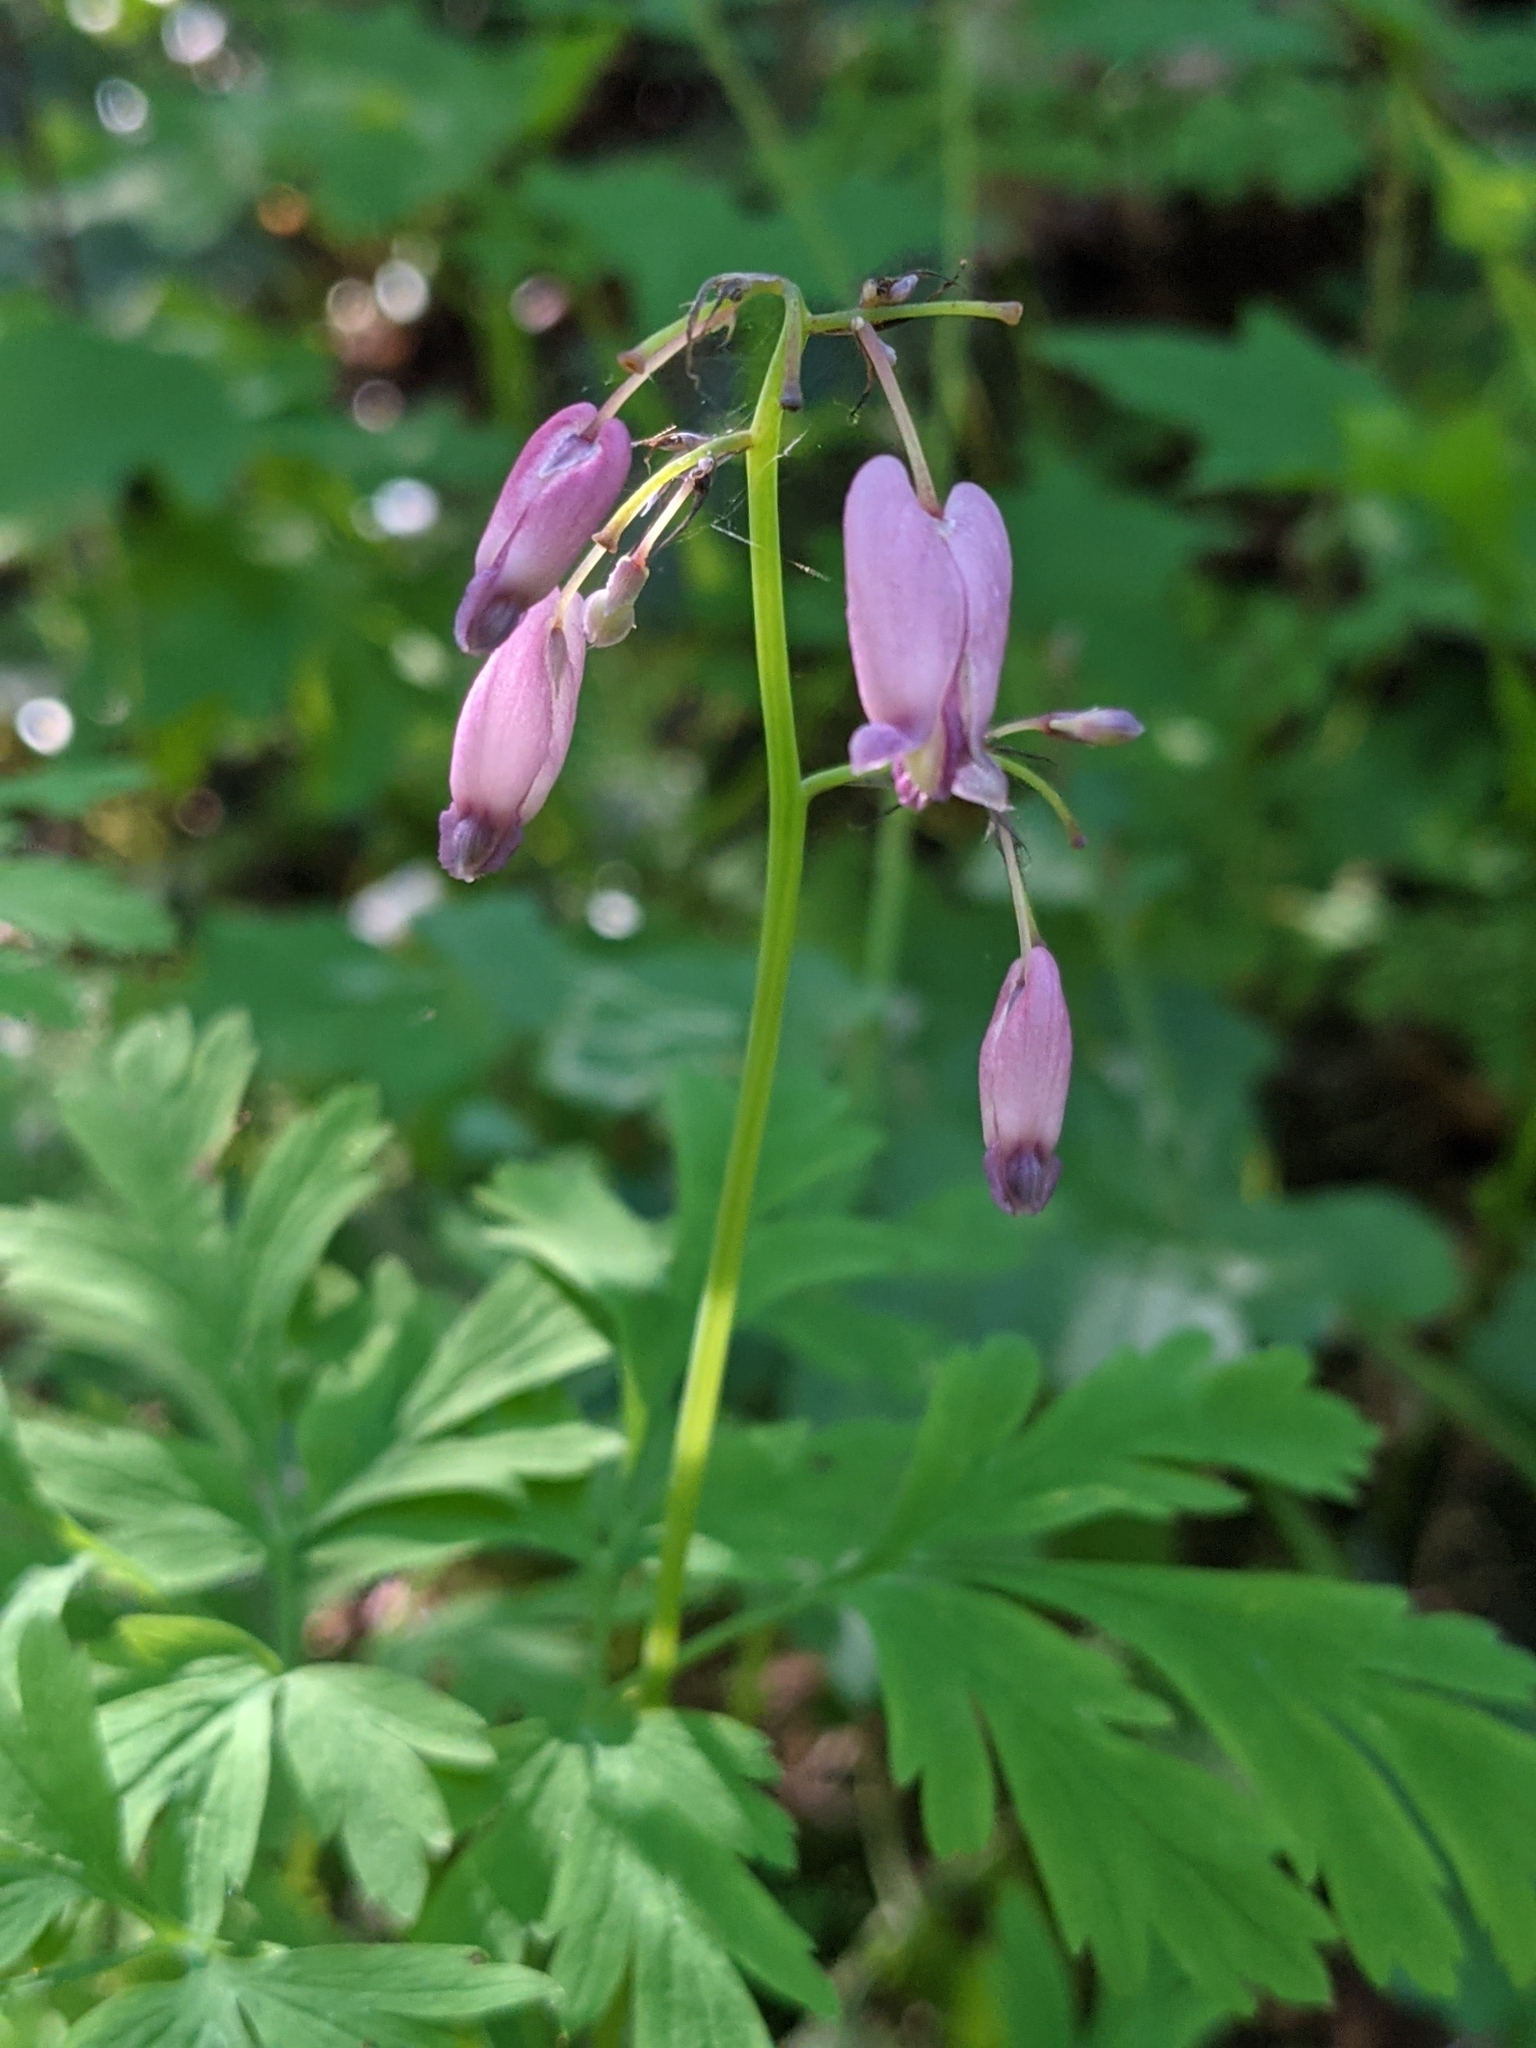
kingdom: Plantae
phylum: Tracheophyta
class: Magnoliopsida
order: Ranunculales
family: Papaveraceae
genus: Dicentra
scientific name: Dicentra formosa
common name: Bleeding-heart
